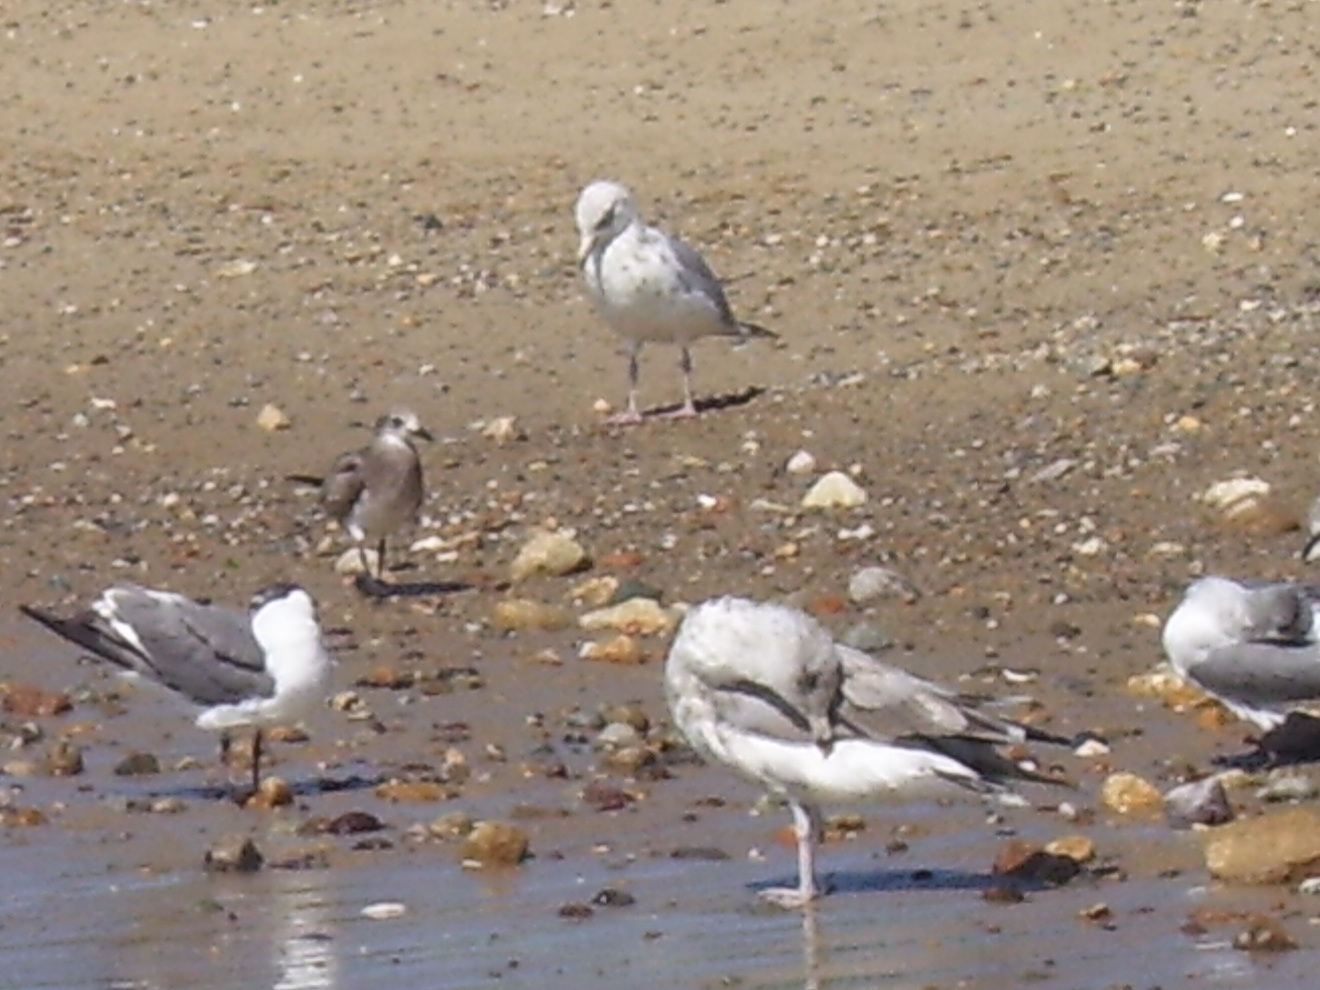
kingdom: Animalia
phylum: Chordata
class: Aves
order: Charadriiformes
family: Laridae
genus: Leucophaeus
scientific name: Leucophaeus atricilla
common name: Laughing gull
